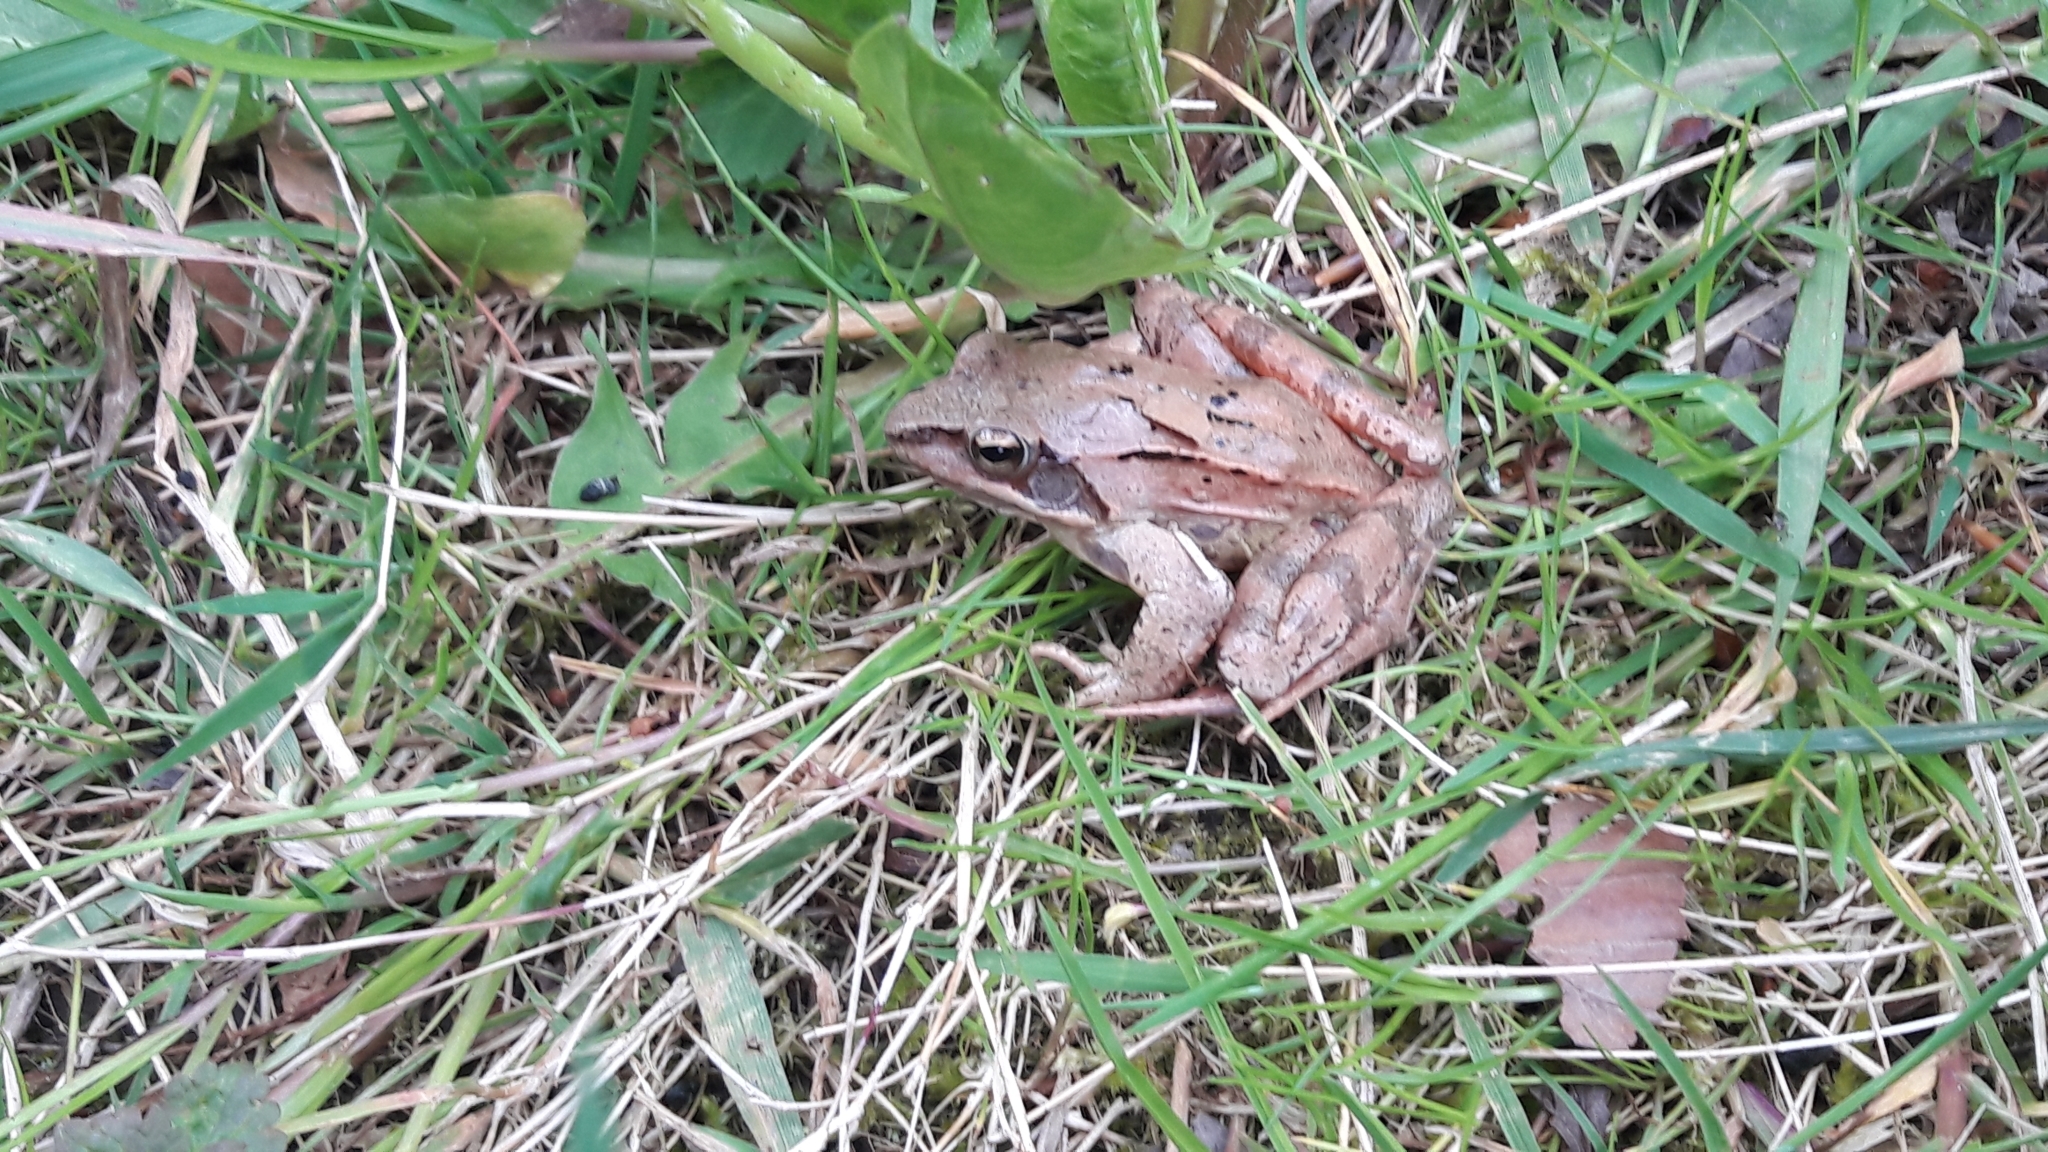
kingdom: Animalia
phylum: Chordata
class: Amphibia
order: Anura
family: Ranidae
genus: Rana
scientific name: Rana dalmatina
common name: Agile frog
